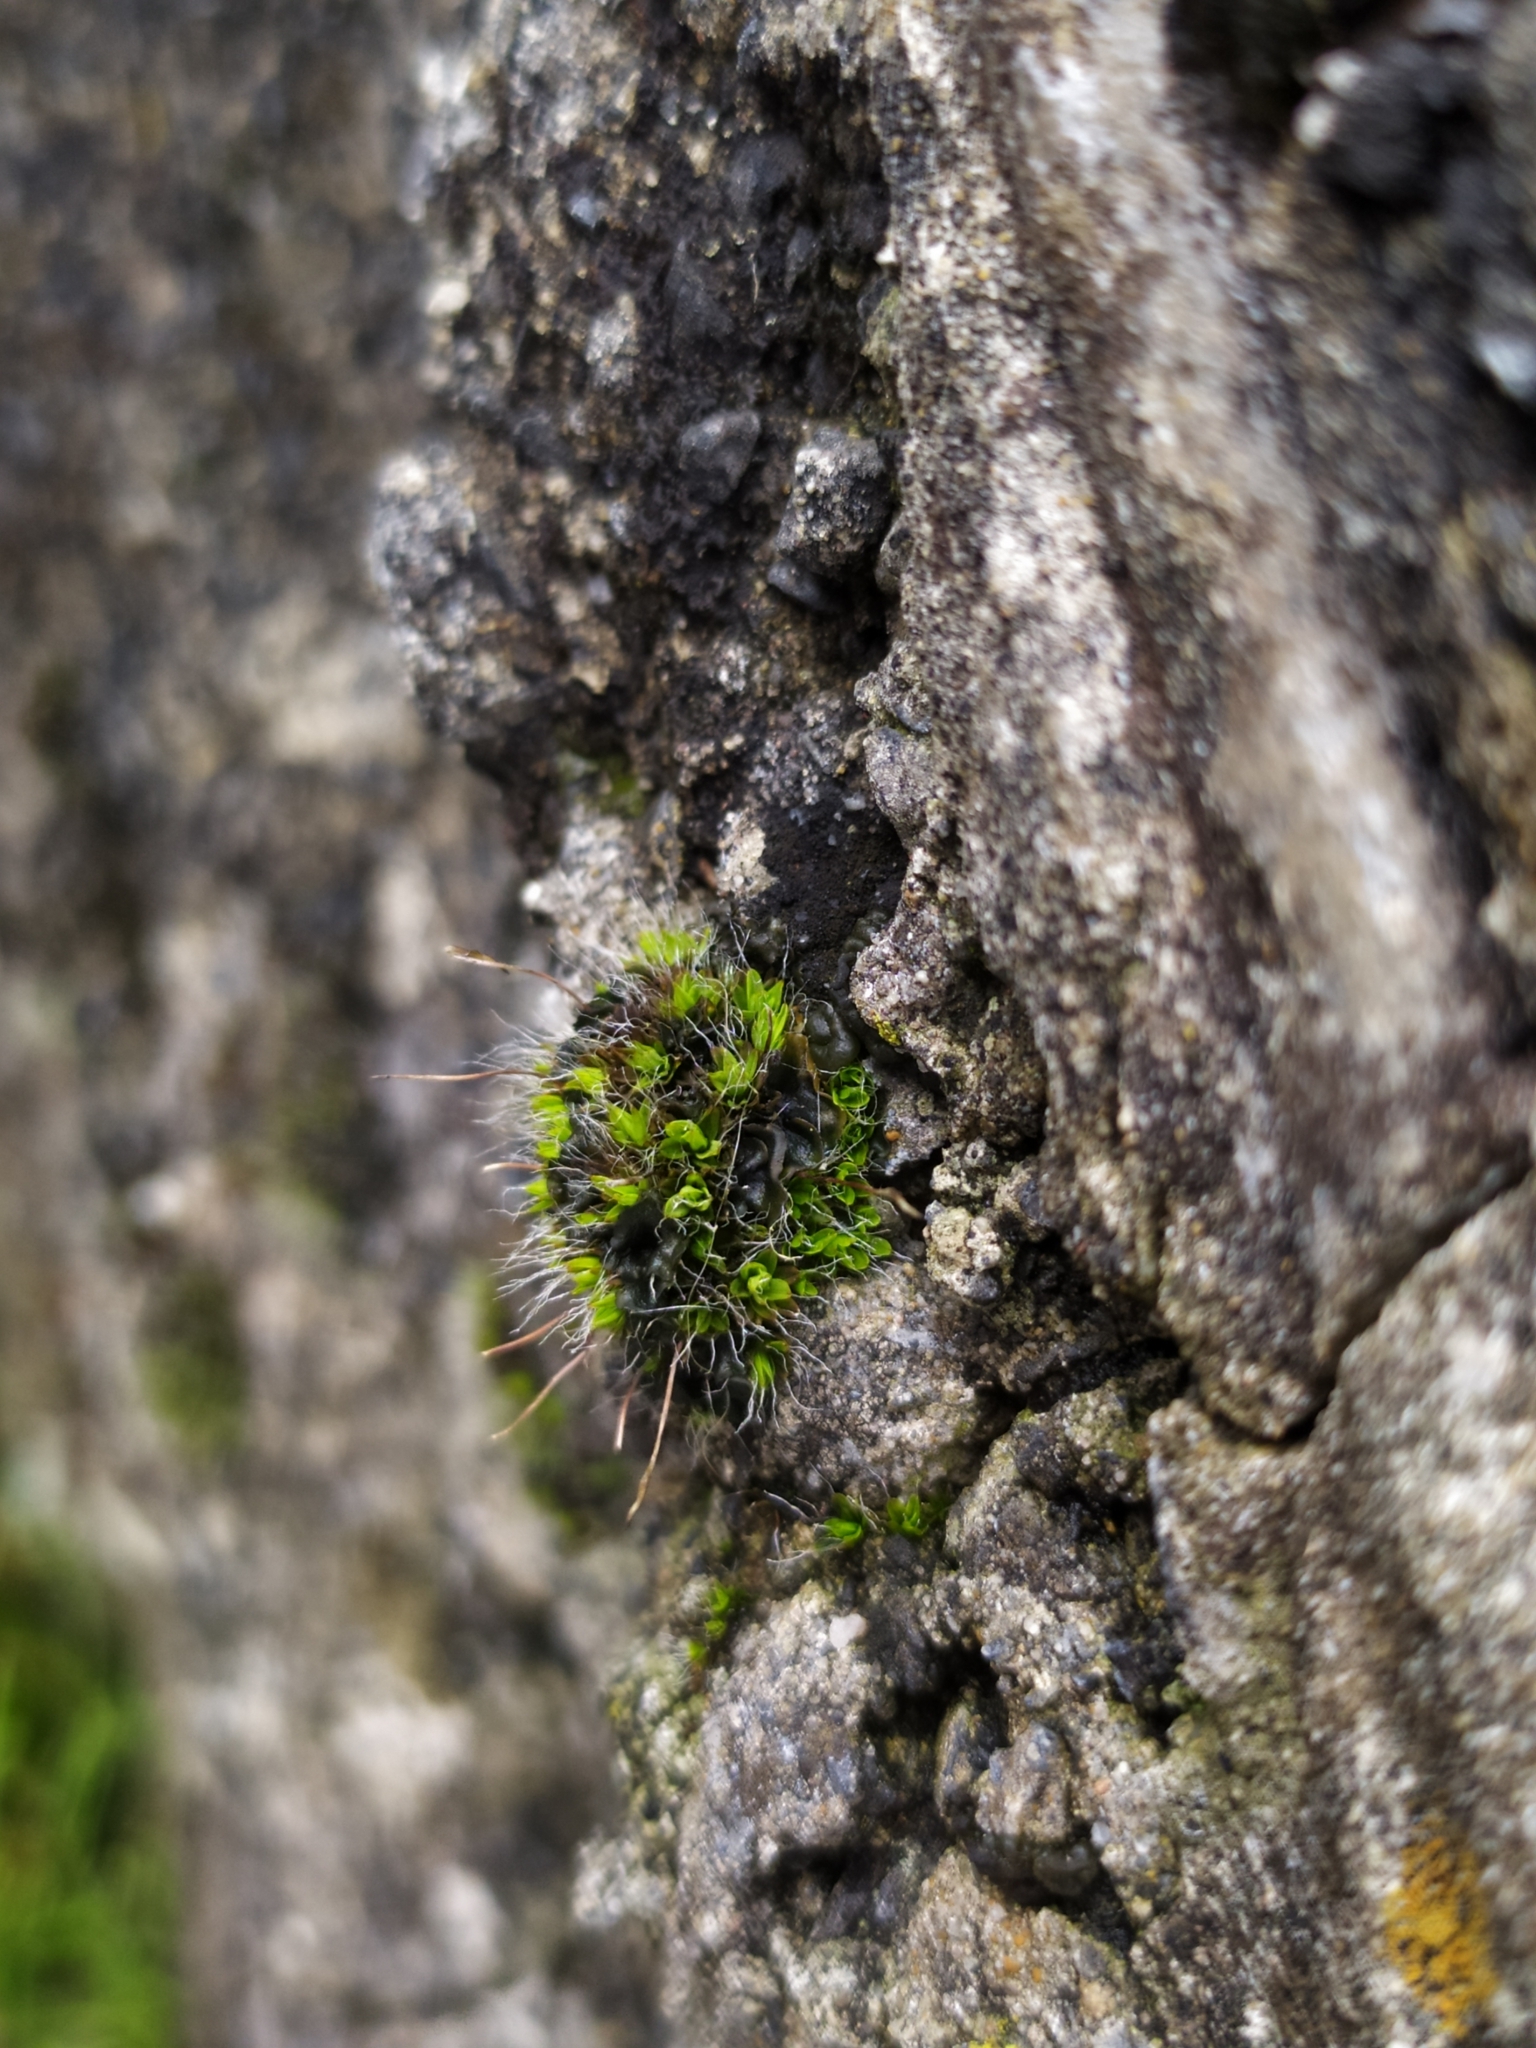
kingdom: Plantae
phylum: Bryophyta
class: Bryopsida
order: Pottiales
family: Pottiaceae
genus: Tortula
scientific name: Tortula muralis
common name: Wall screw-moss
